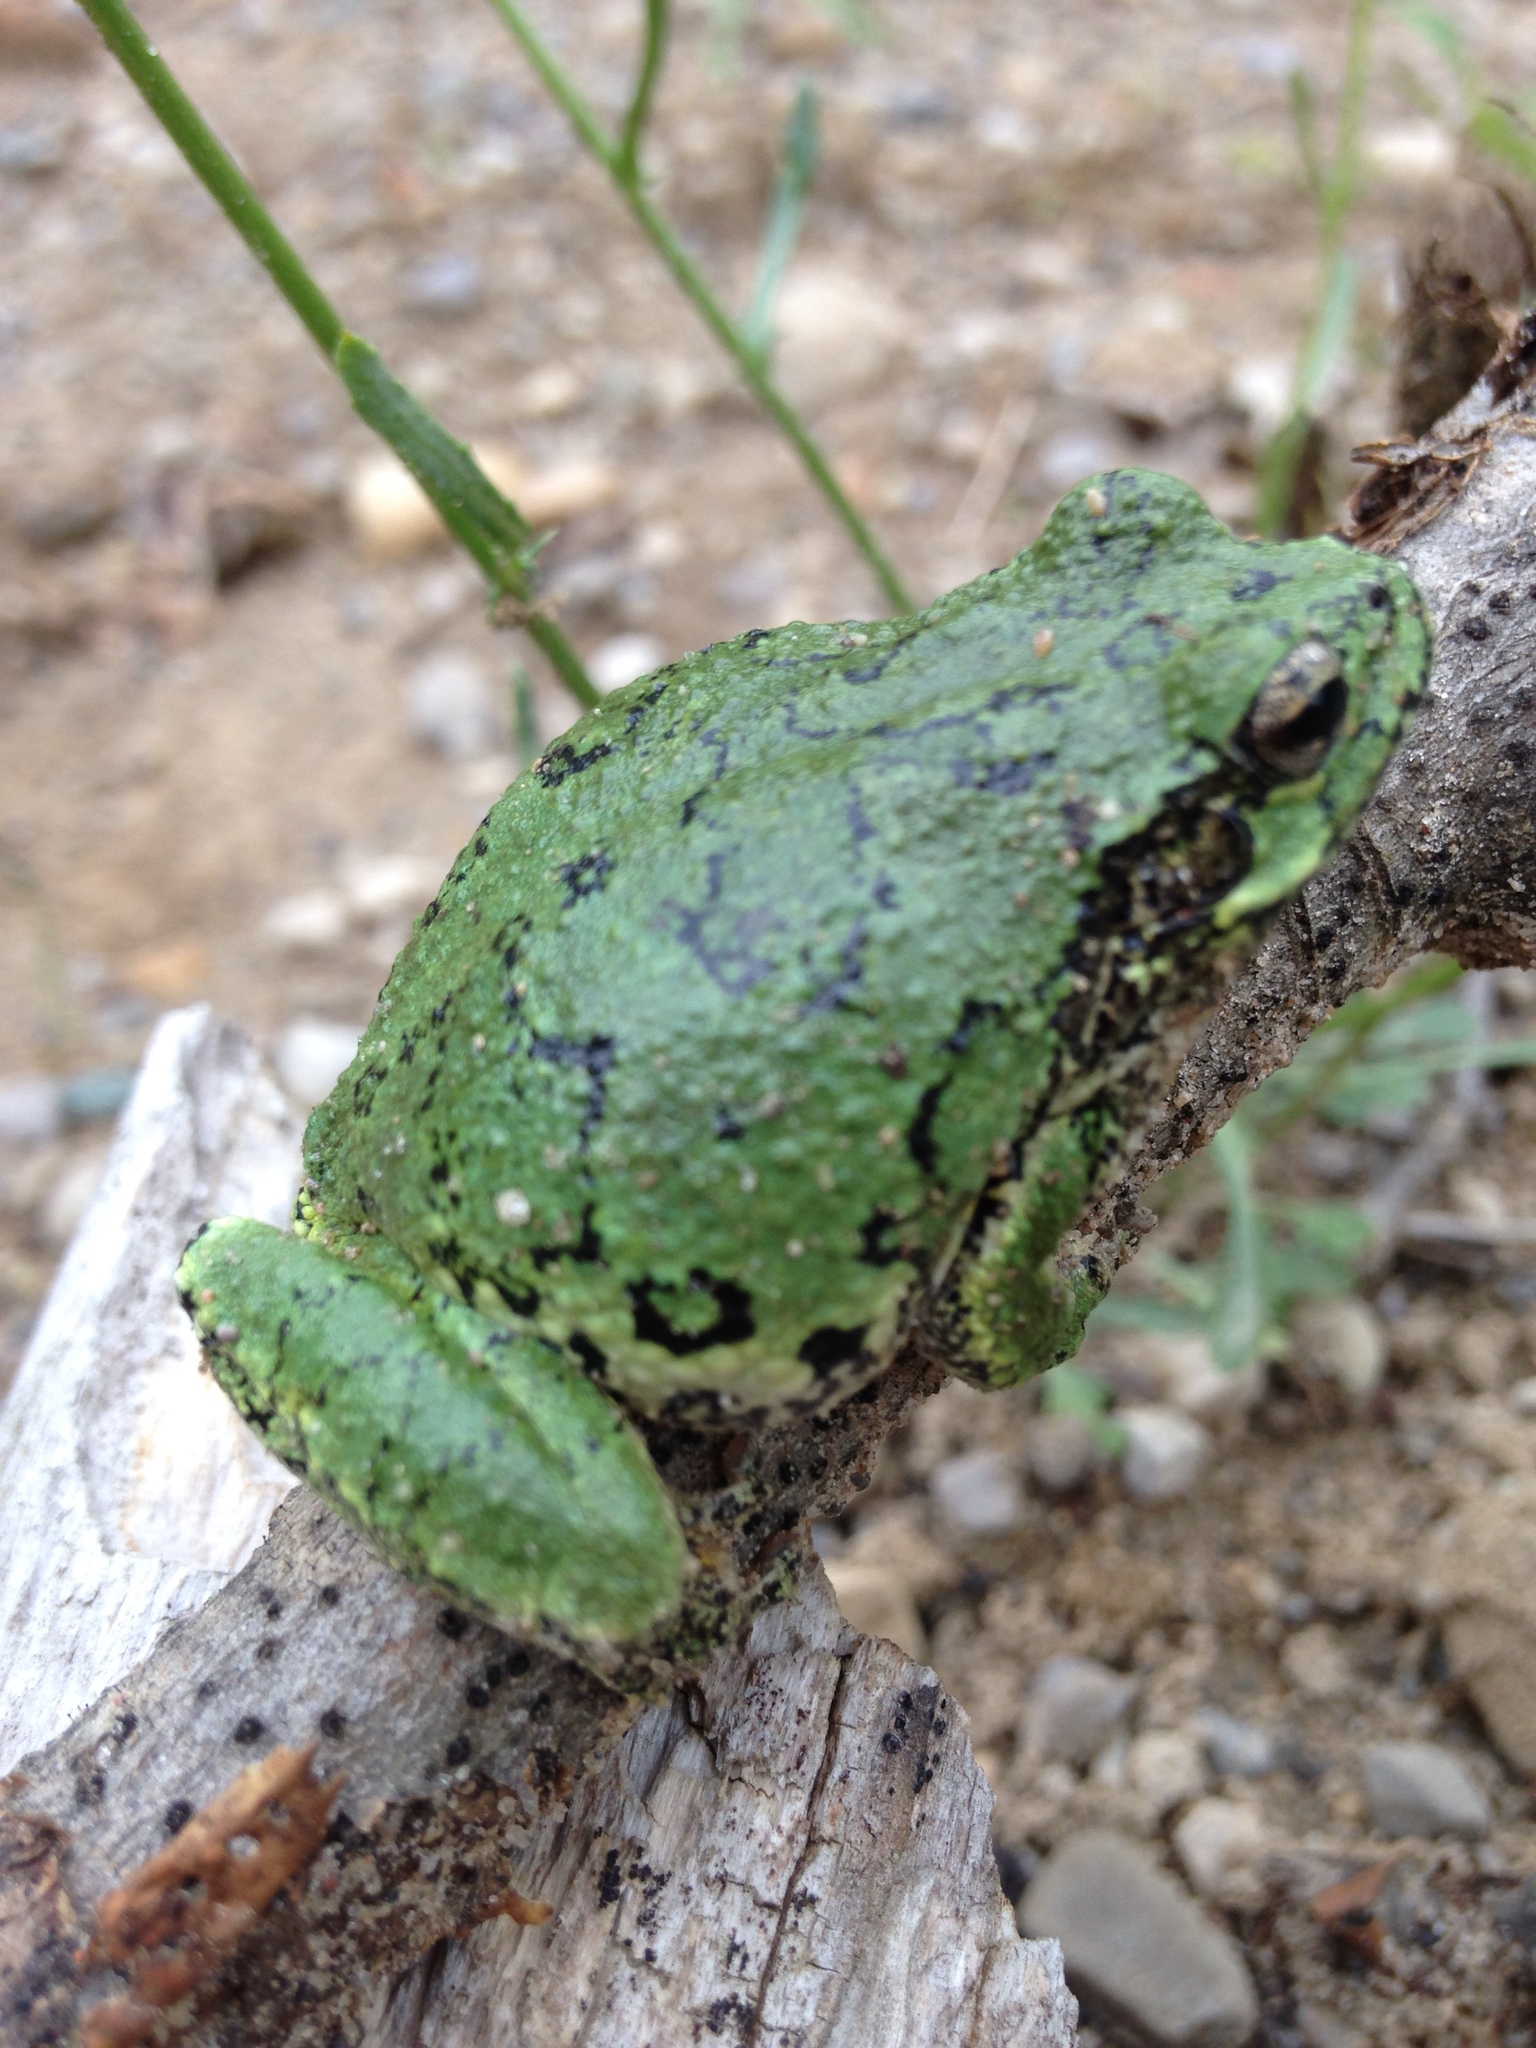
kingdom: Animalia
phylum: Chordata
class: Amphibia
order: Anura
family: Hylidae
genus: Dryophytes
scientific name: Dryophytes versicolor
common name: Gray treefrog
